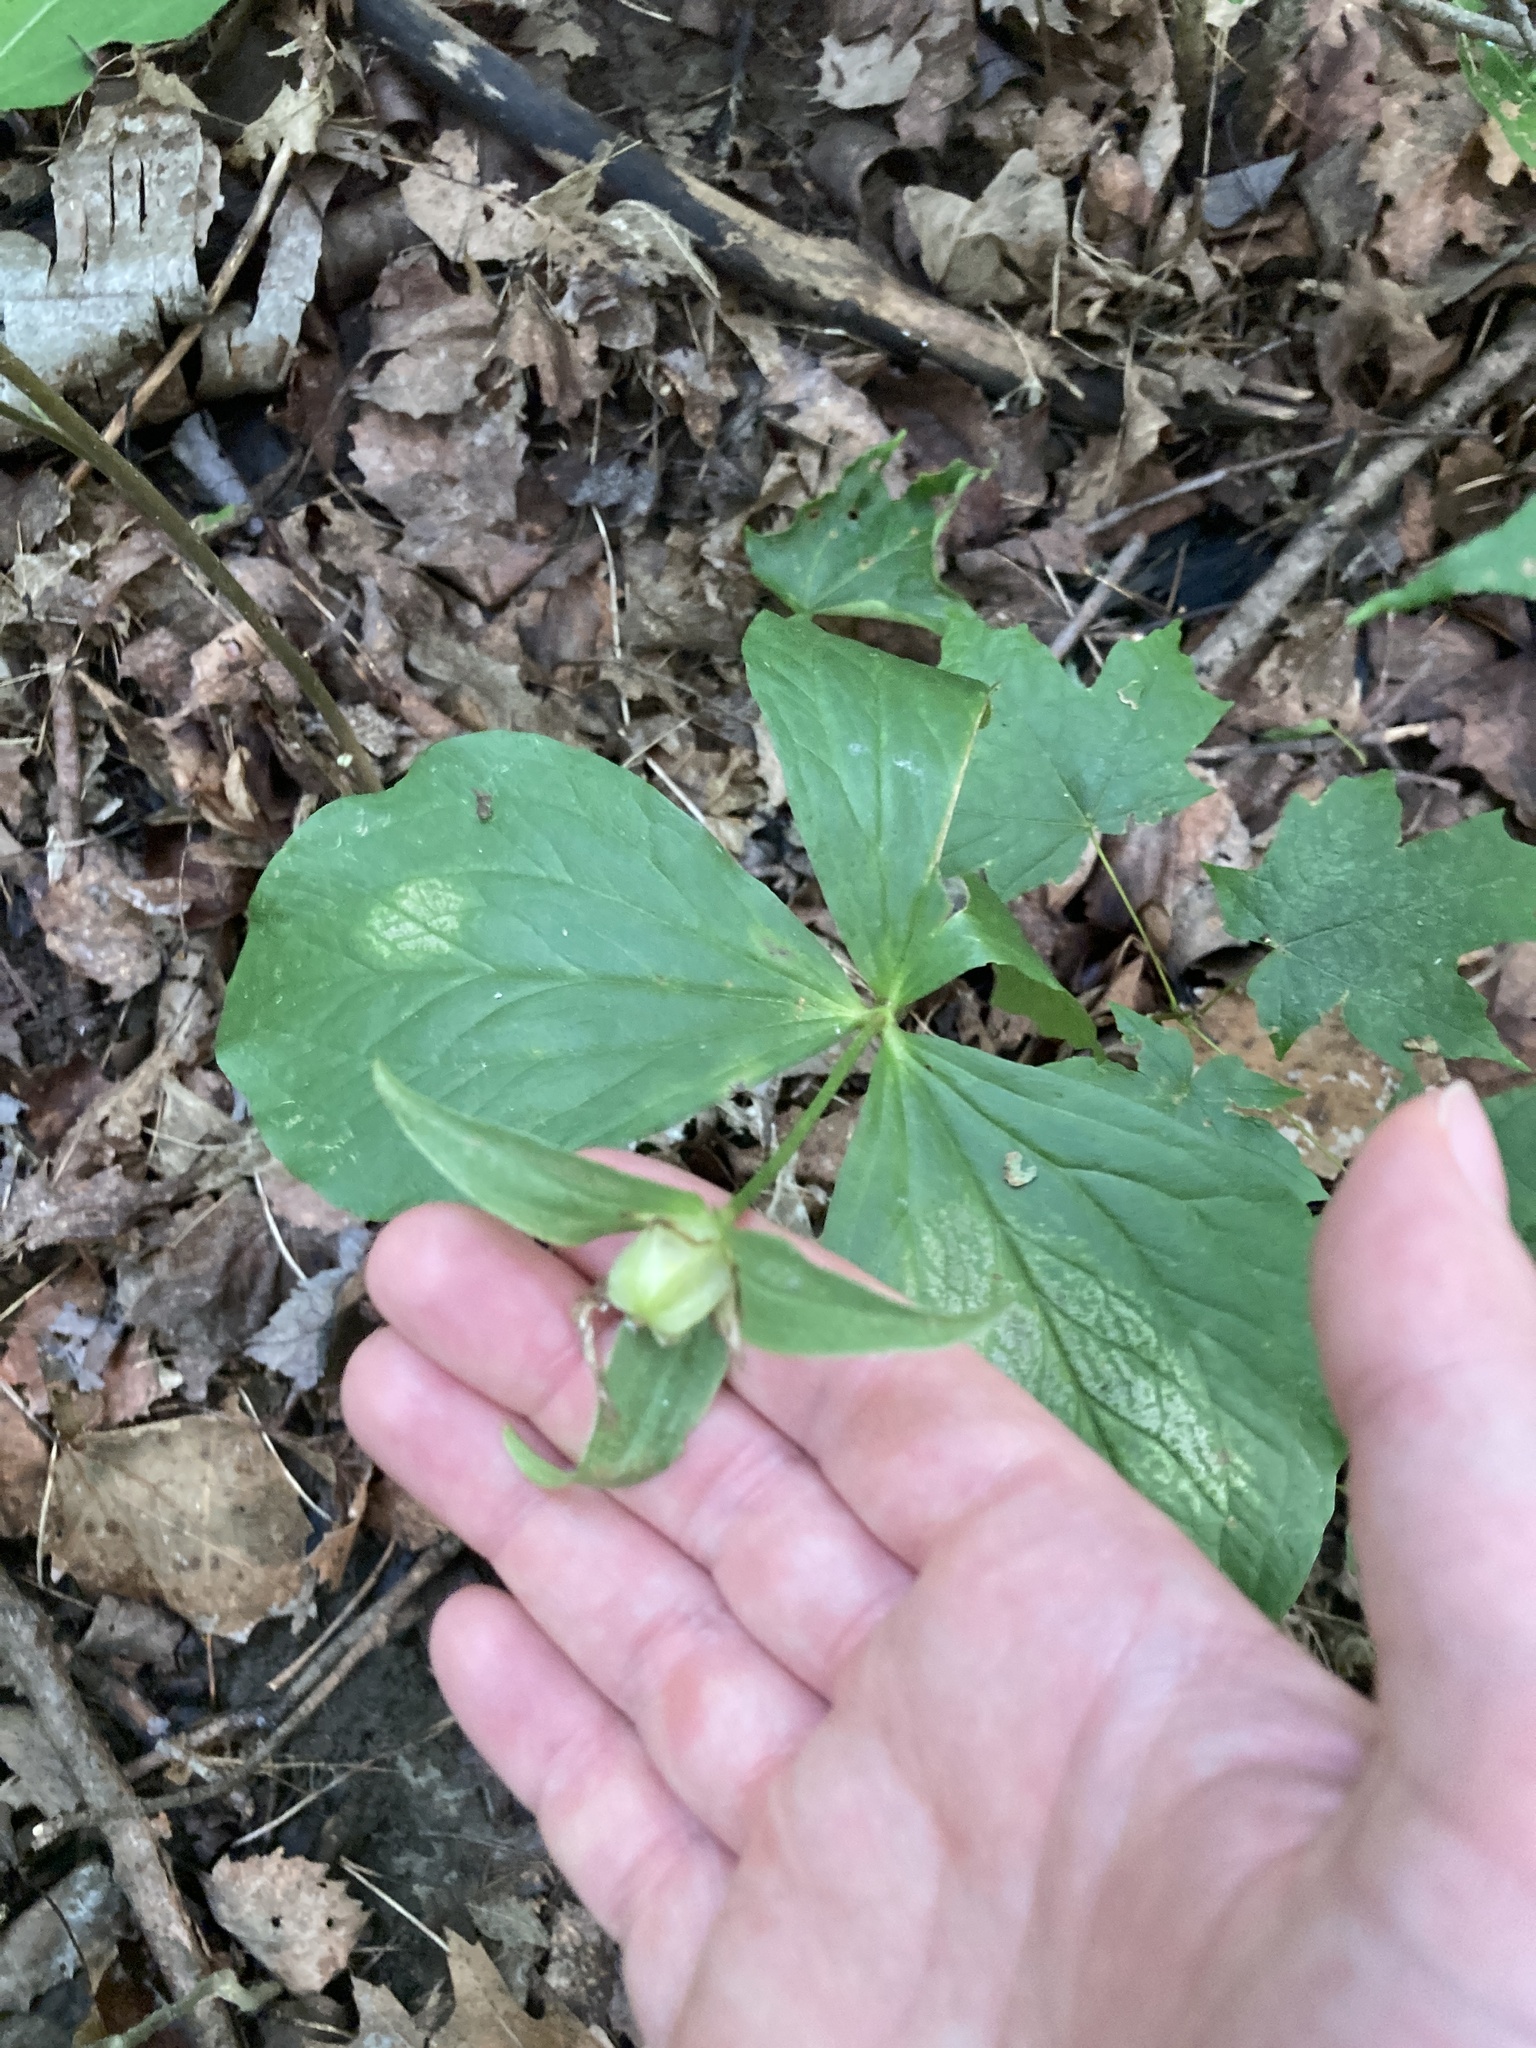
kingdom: Plantae
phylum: Tracheophyta
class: Liliopsida
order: Liliales
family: Melanthiaceae
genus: Trillium
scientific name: Trillium grandiflorum
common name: Great white trillium
